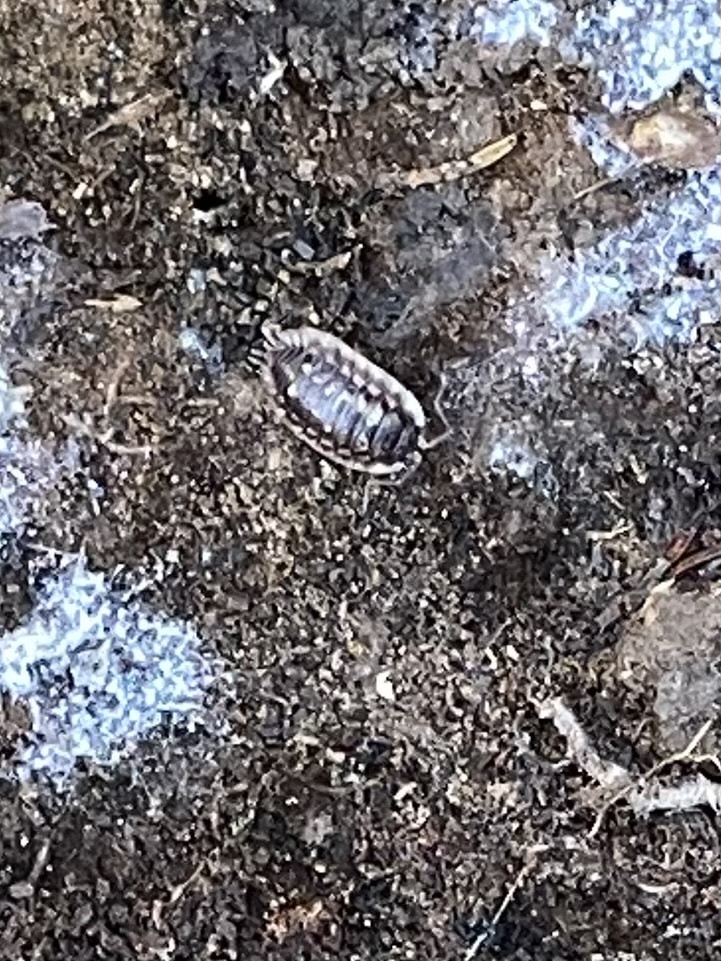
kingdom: Animalia
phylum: Arthropoda
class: Malacostraca
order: Isopoda
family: Oniscidae
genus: Oniscus
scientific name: Oniscus asellus
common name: Common shiny woodlouse
